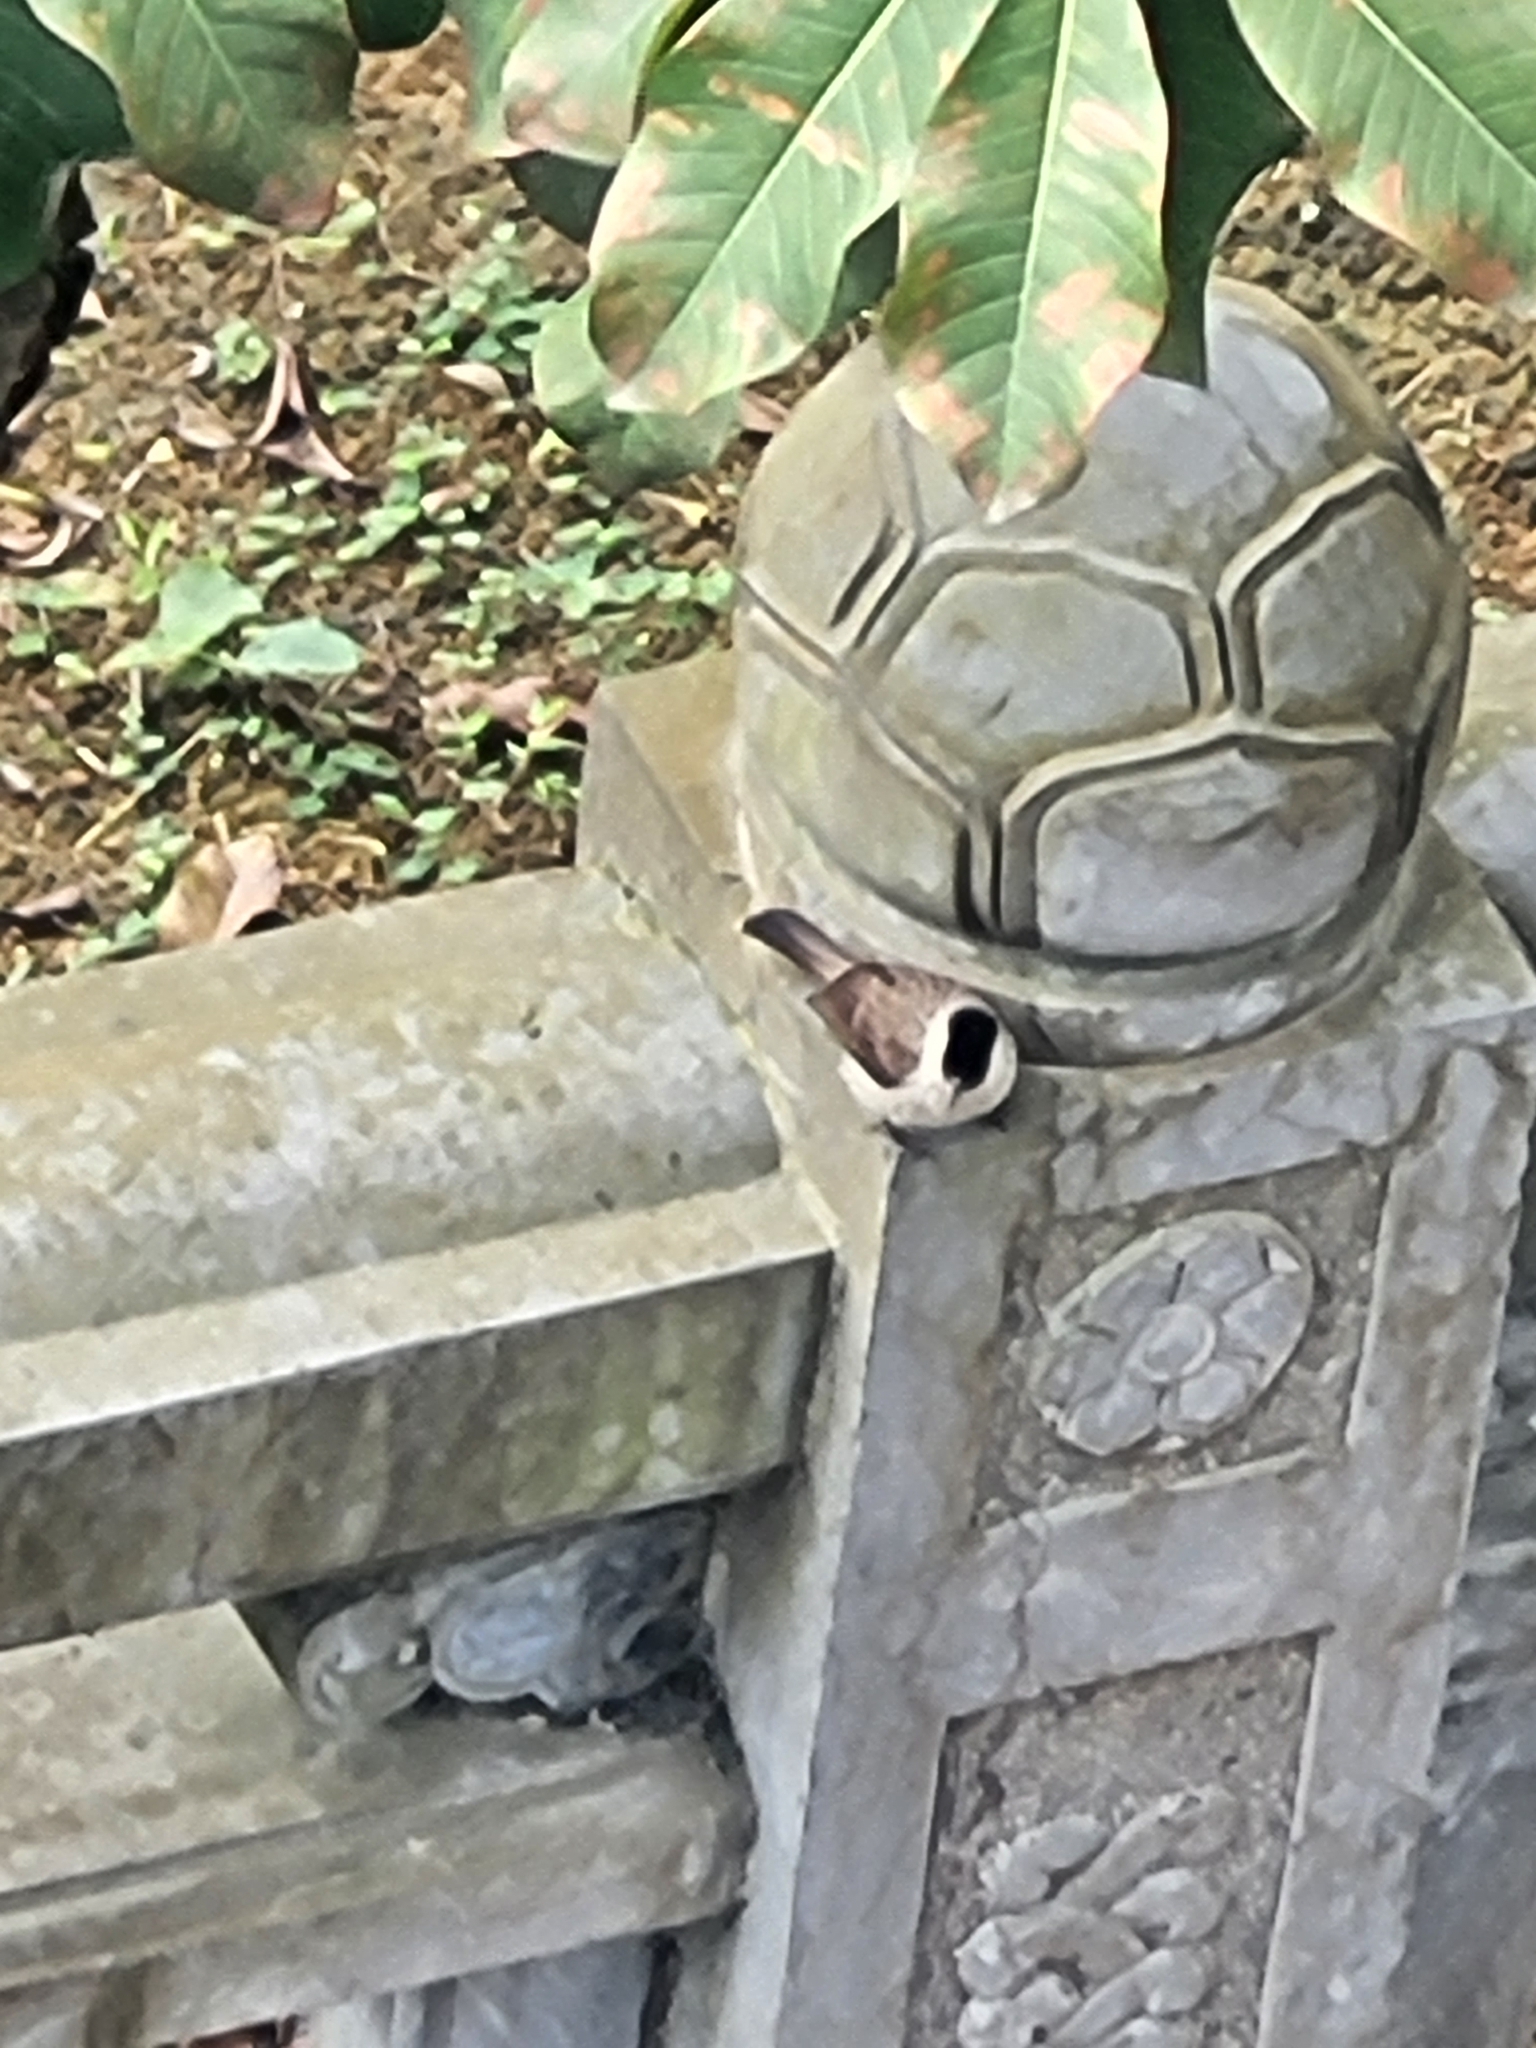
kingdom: Animalia
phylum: Chordata
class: Aves
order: Passeriformes
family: Pycnonotidae
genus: Pycnonotus
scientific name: Pycnonotus aurigaster
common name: Sooty-headed bulbul
